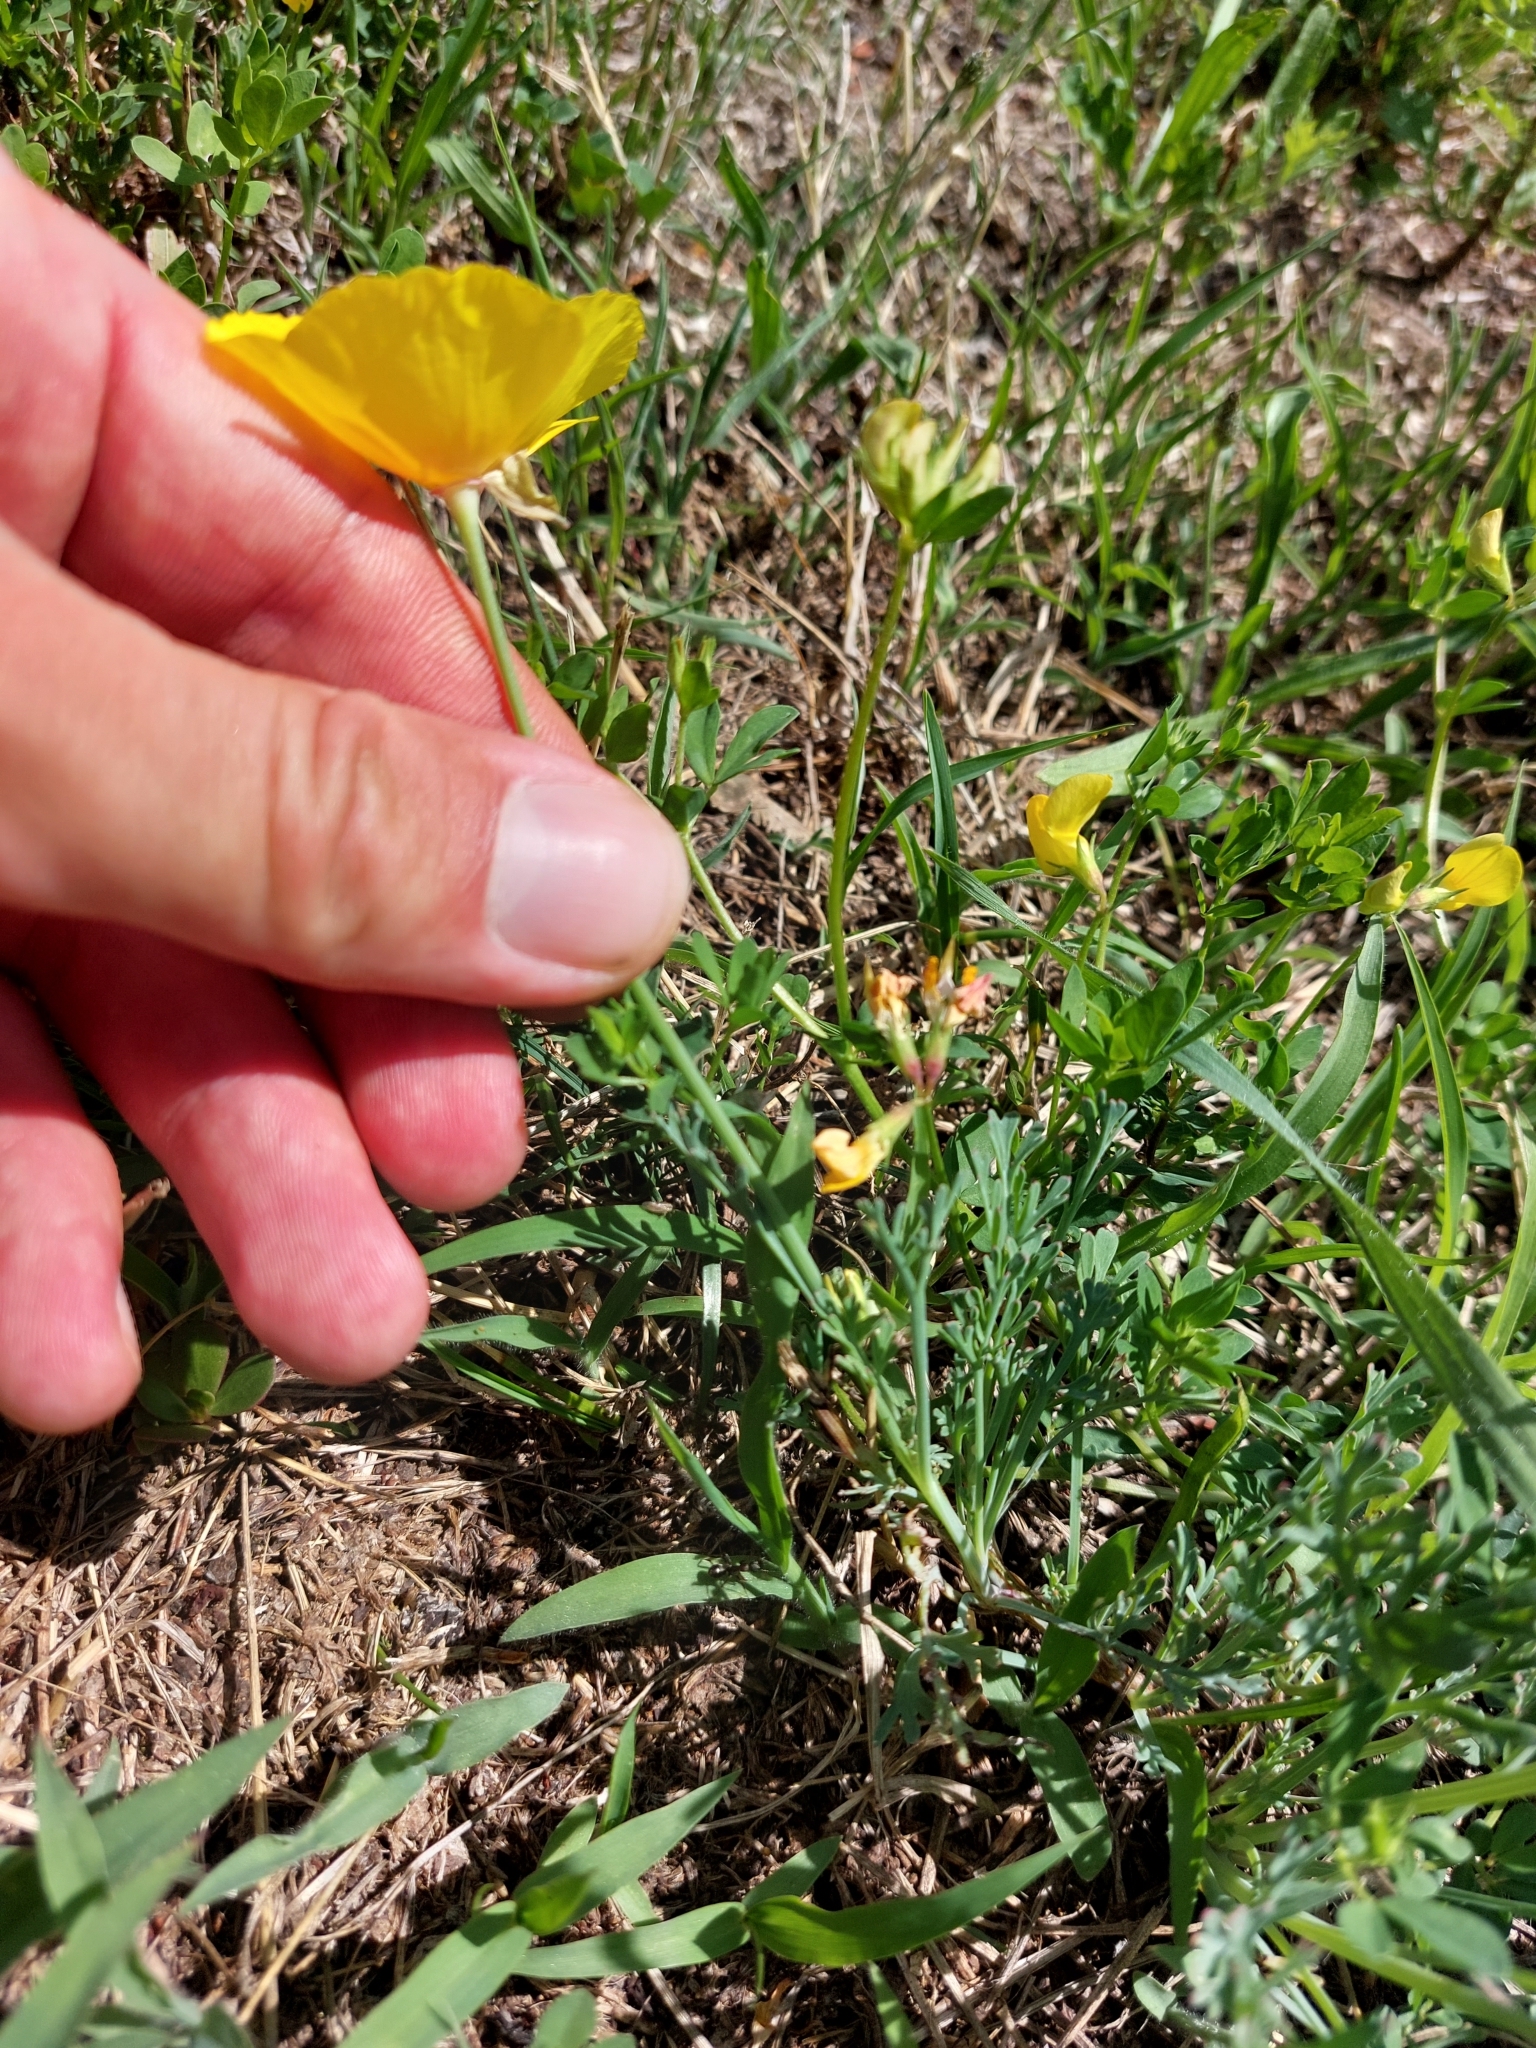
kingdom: Plantae
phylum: Tracheophyta
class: Magnoliopsida
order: Ranunculales
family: Papaveraceae
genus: Eschscholzia
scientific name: Eschscholzia californica
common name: California poppy
